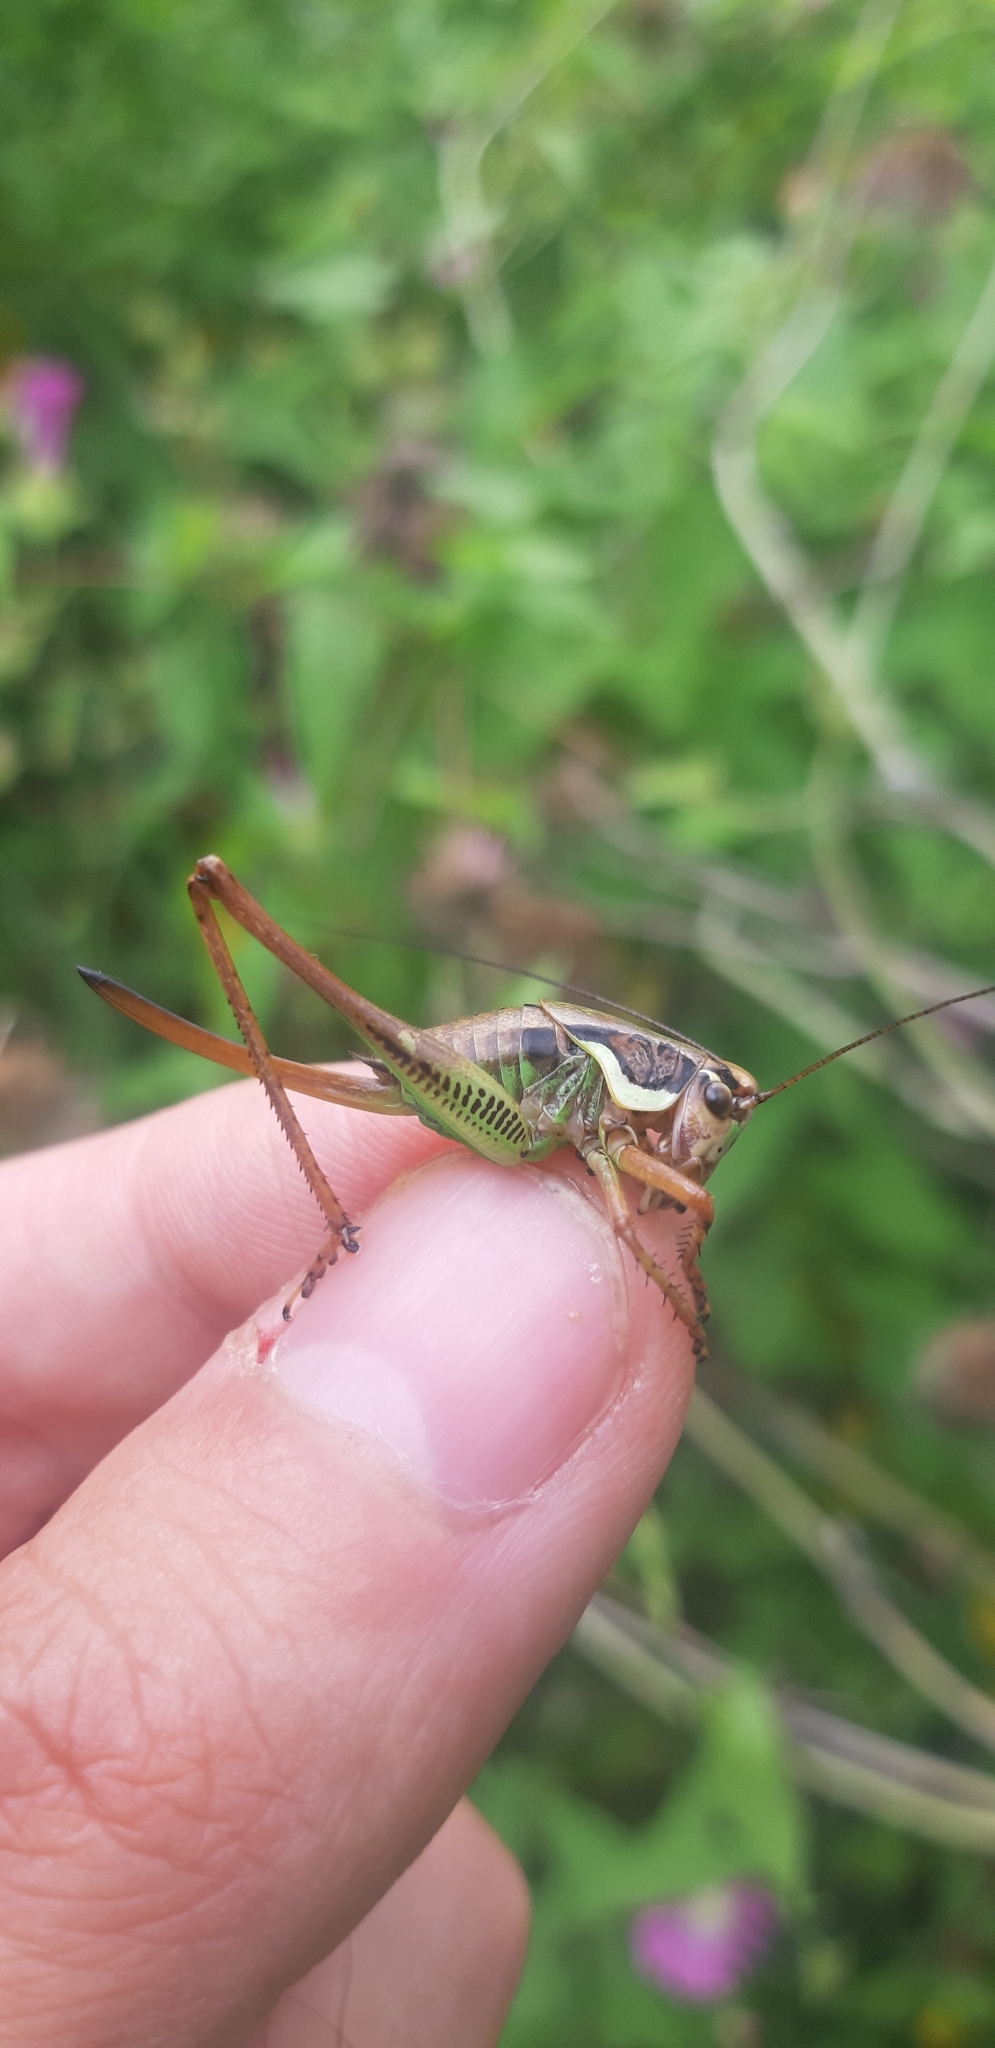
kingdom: Animalia
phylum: Arthropoda
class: Insecta
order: Orthoptera
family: Tettigoniidae
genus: Eupholidoptera
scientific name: Eupholidoptera magnifica
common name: Splendid marbled bush-cricket
